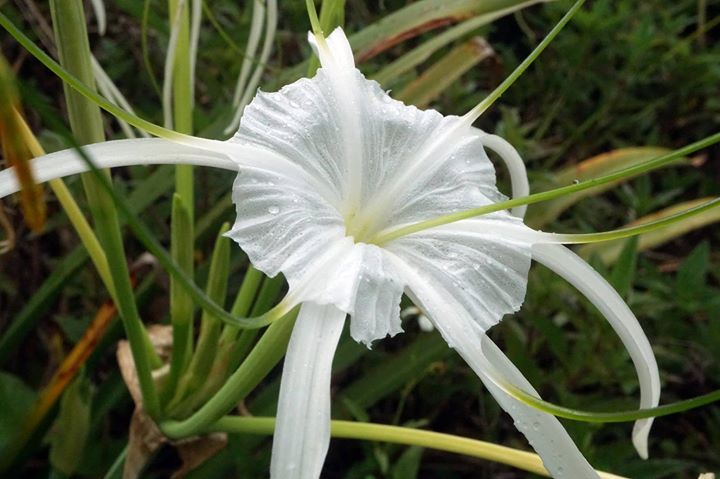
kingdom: Plantae
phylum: Tracheophyta
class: Liliopsida
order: Asparagales
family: Amaryllidaceae
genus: Hymenocallis
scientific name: Hymenocallis latifolia
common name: Cayman islands spider-lily
